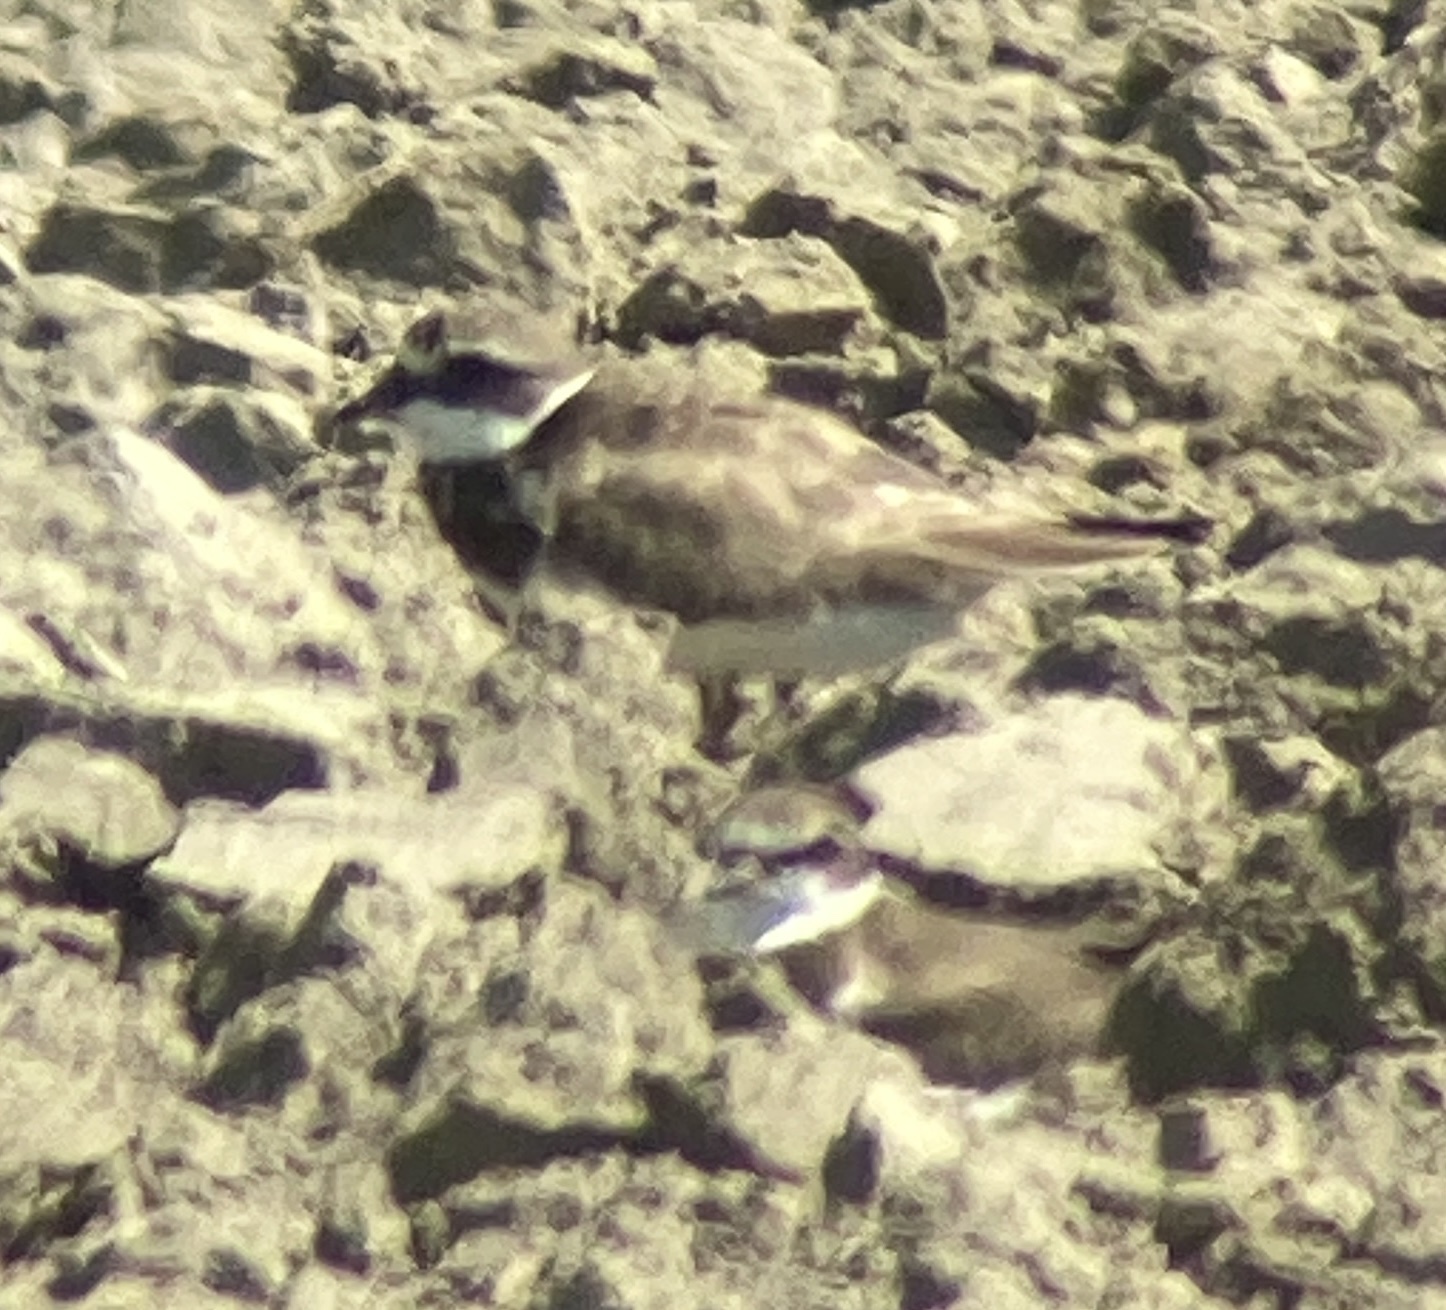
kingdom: Animalia
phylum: Chordata
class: Aves
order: Charadriiformes
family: Charadriidae
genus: Charadrius
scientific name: Charadrius hiaticula
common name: Common ringed plover
